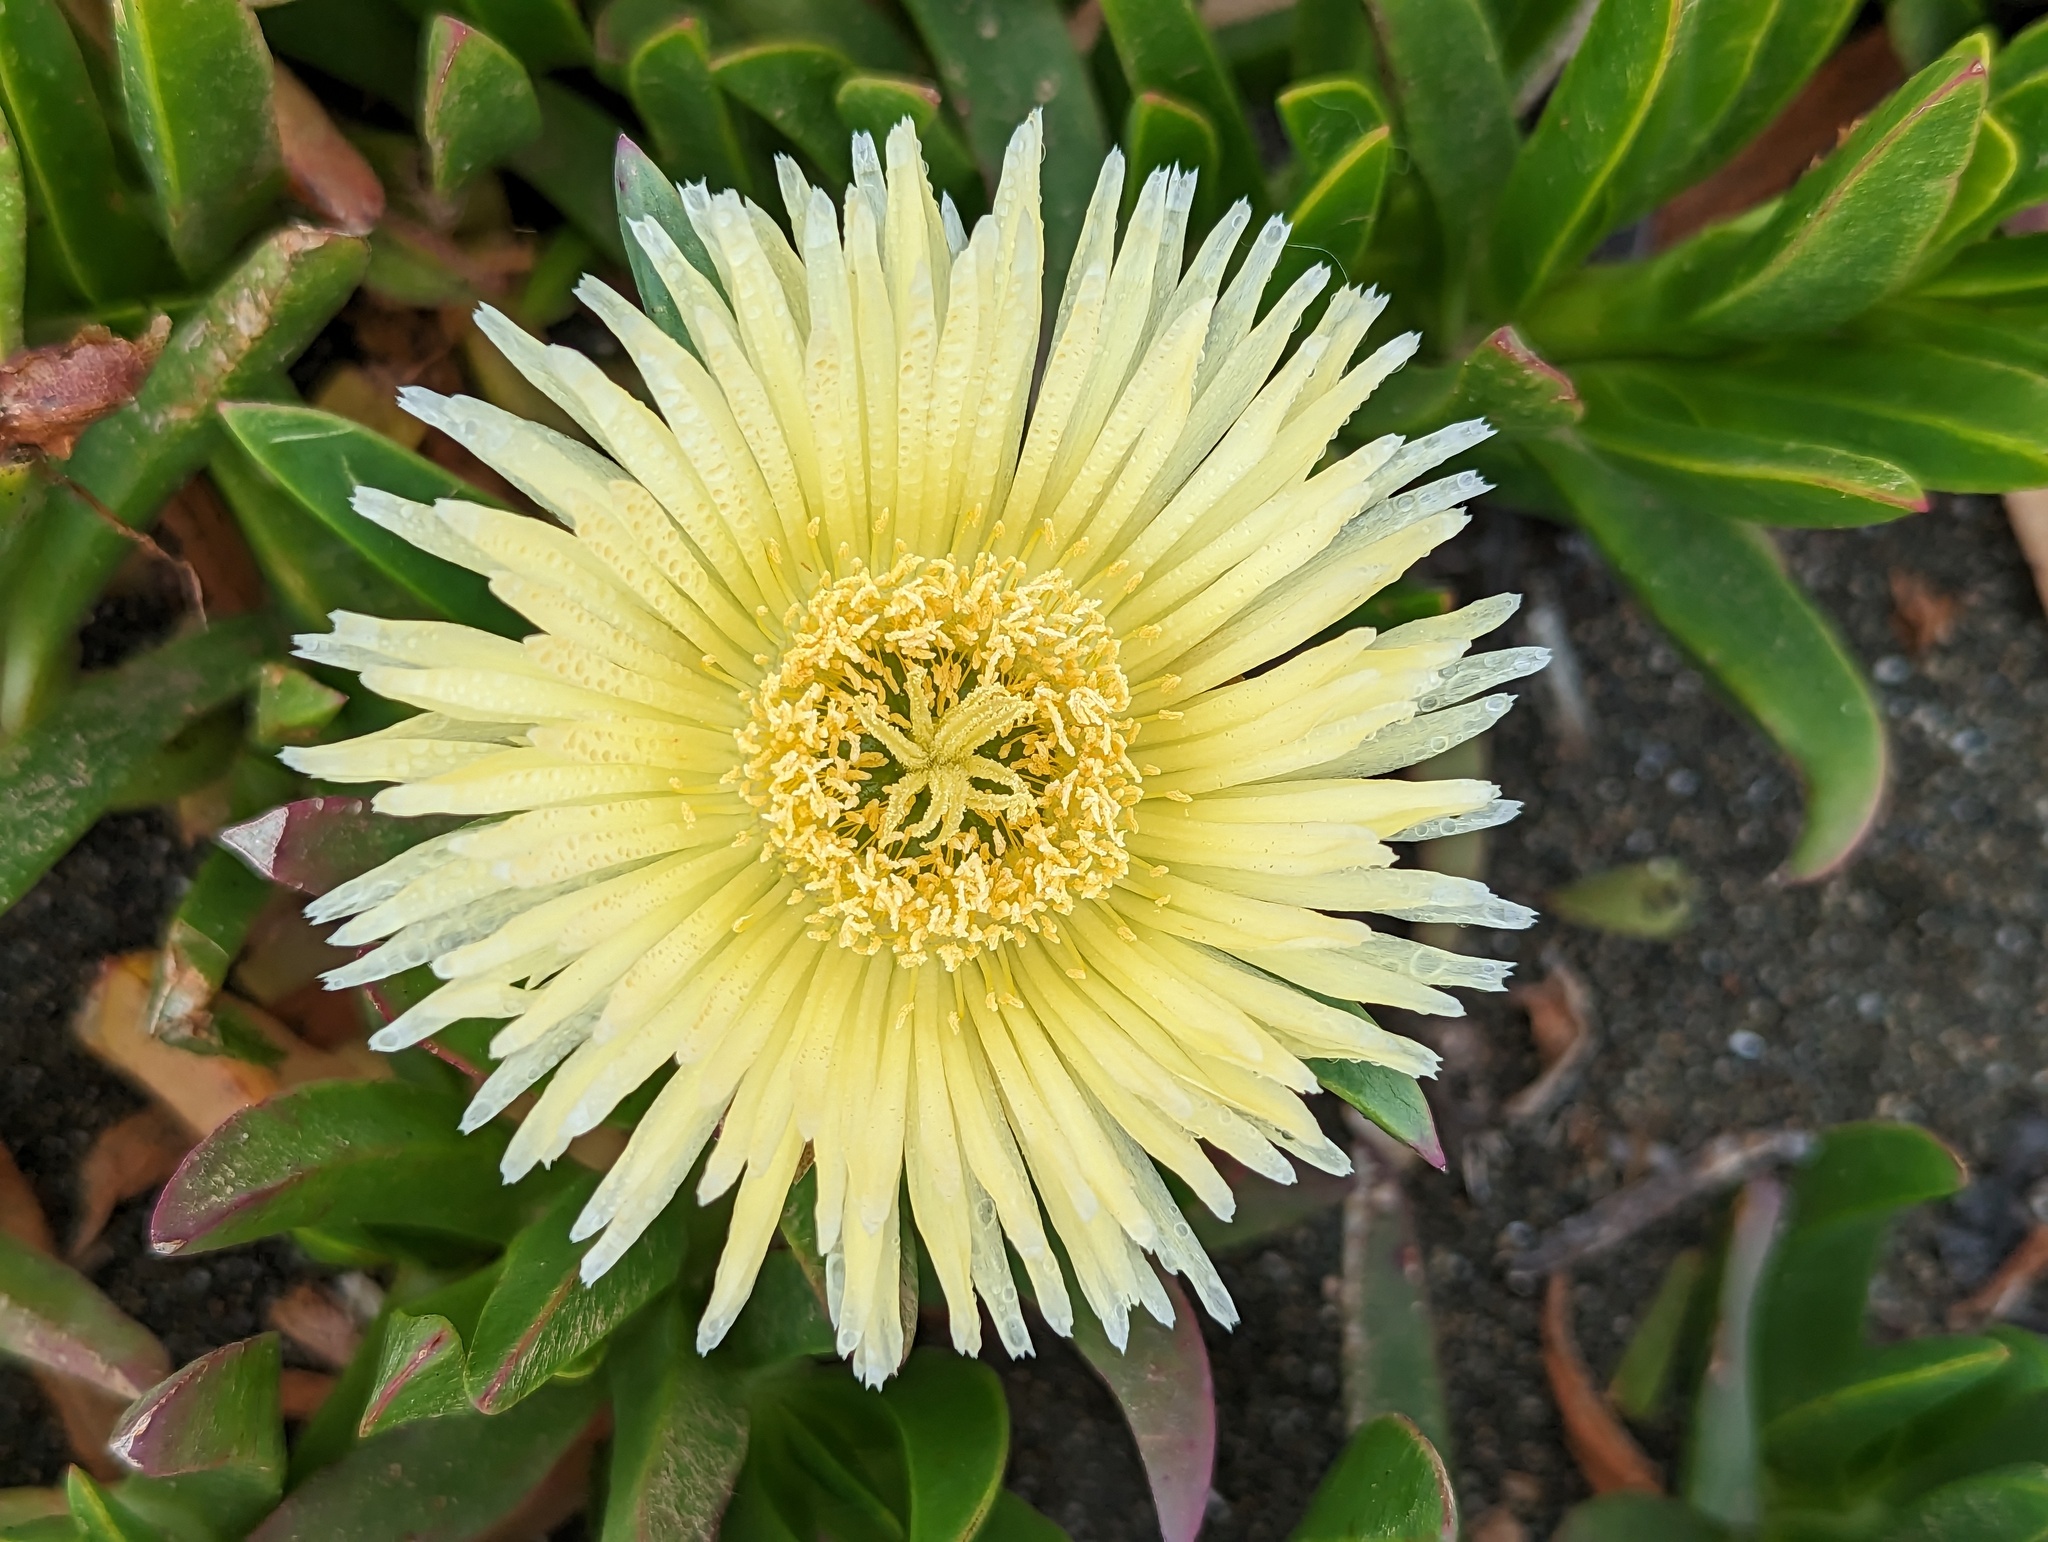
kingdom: Plantae
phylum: Tracheophyta
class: Magnoliopsida
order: Caryophyllales
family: Aizoaceae
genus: Carpobrotus
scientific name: Carpobrotus edulis
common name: Hottentot-fig
